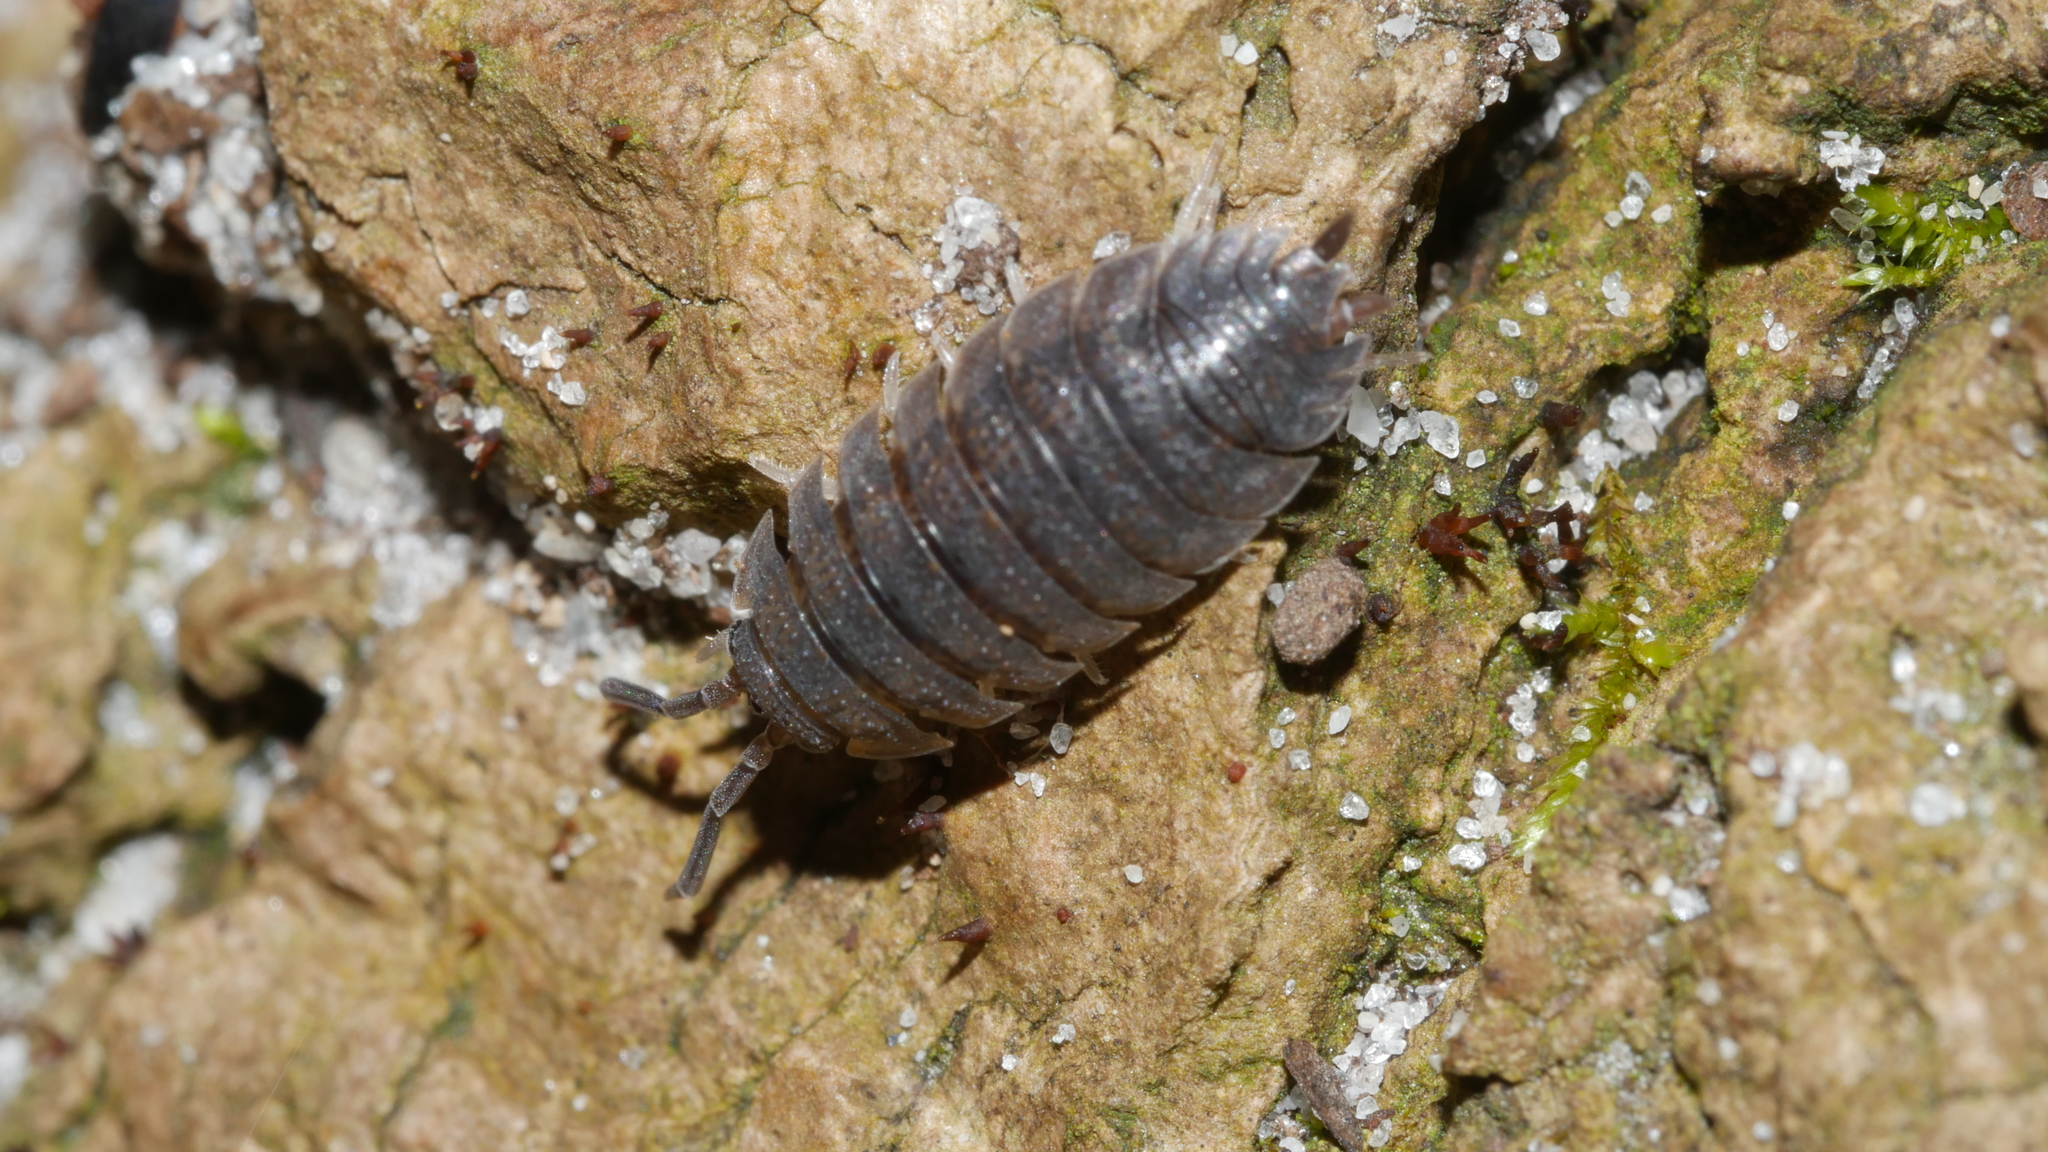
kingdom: Animalia
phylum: Arthropoda
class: Malacostraca
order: Isopoda
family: Porcellionidae
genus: Porcellio
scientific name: Porcellio scaber
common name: Common rough woodlouse
